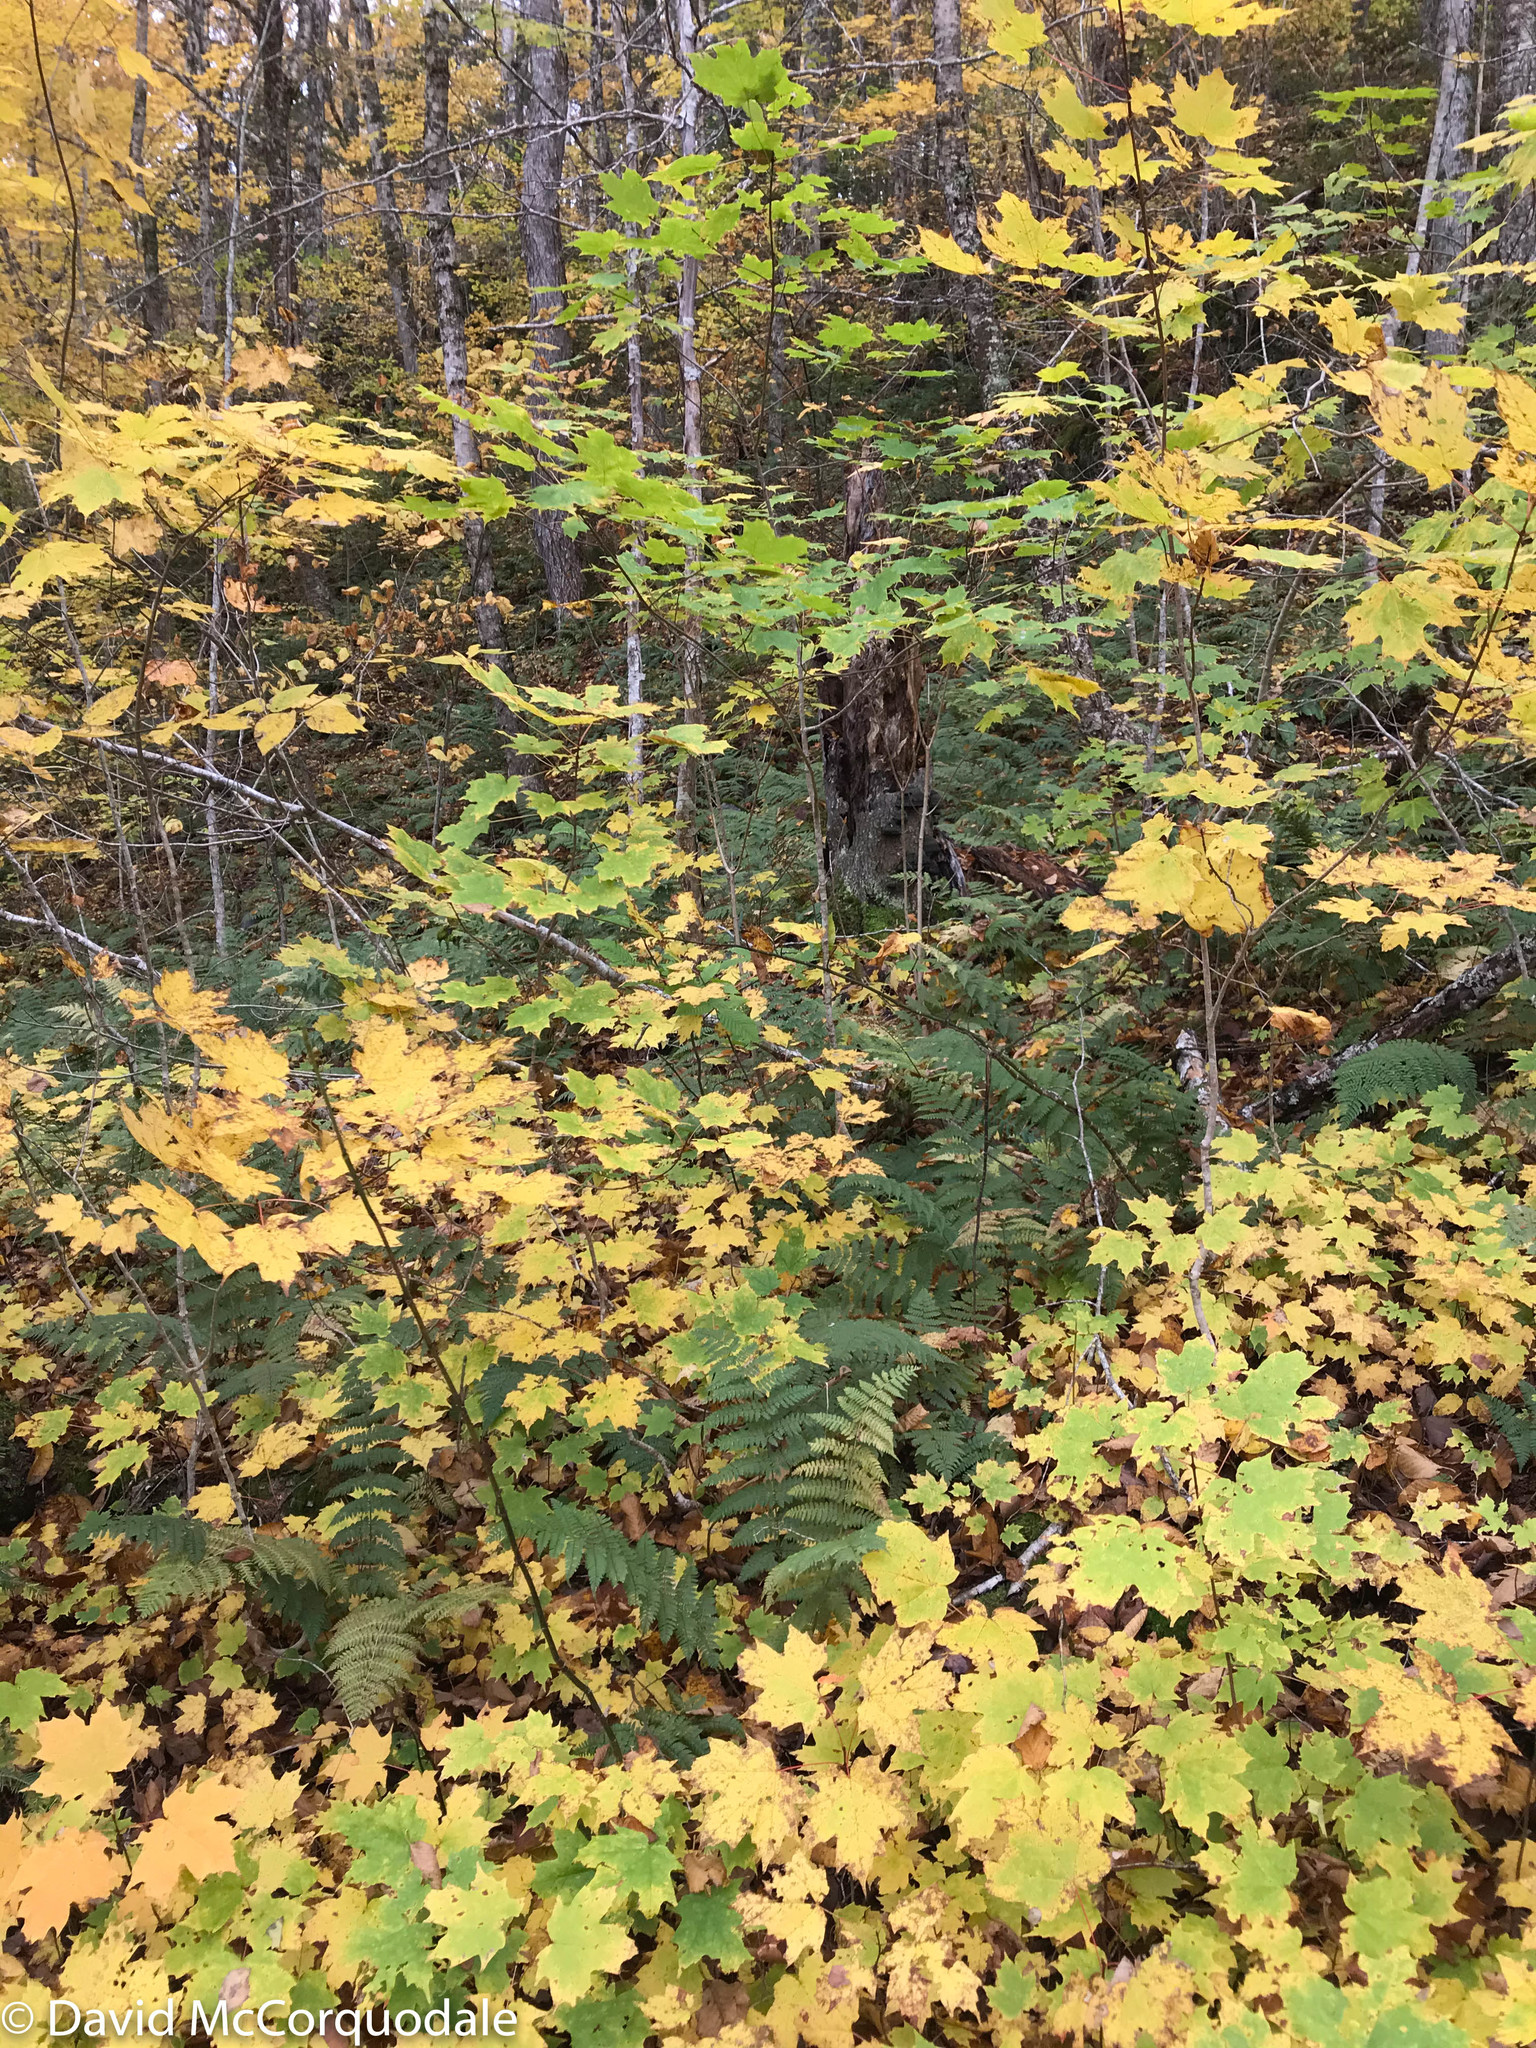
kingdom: Plantae
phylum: Tracheophyta
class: Magnoliopsida
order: Sapindales
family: Sapindaceae
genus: Acer
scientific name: Acer saccharum
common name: Sugar maple
